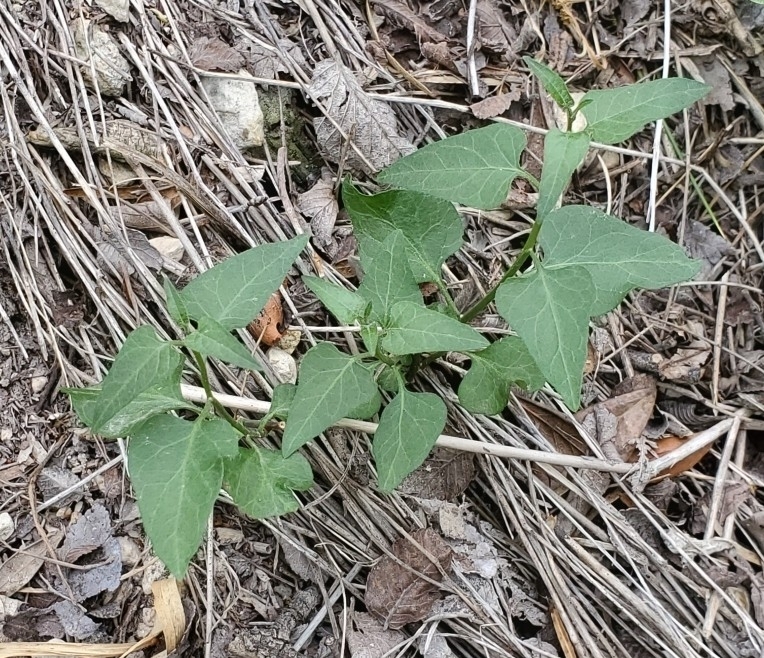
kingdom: Plantae
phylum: Tracheophyta
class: Magnoliopsida
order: Solanales
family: Solanaceae
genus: Solanum
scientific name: Solanum triquetrum
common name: Texas nightshade
